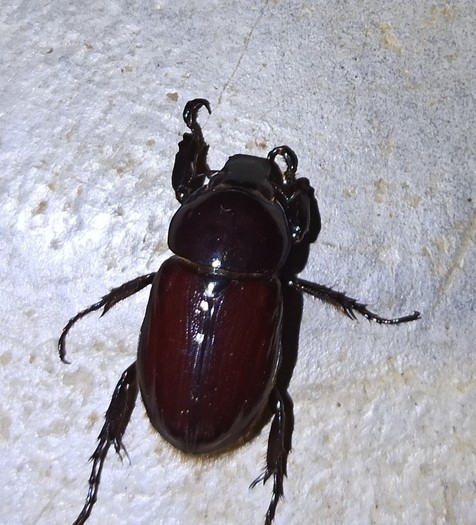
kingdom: Animalia
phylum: Arthropoda
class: Insecta
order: Coleoptera
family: Scarabaeidae
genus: Aspidolea
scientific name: Aspidolea fuliginea
